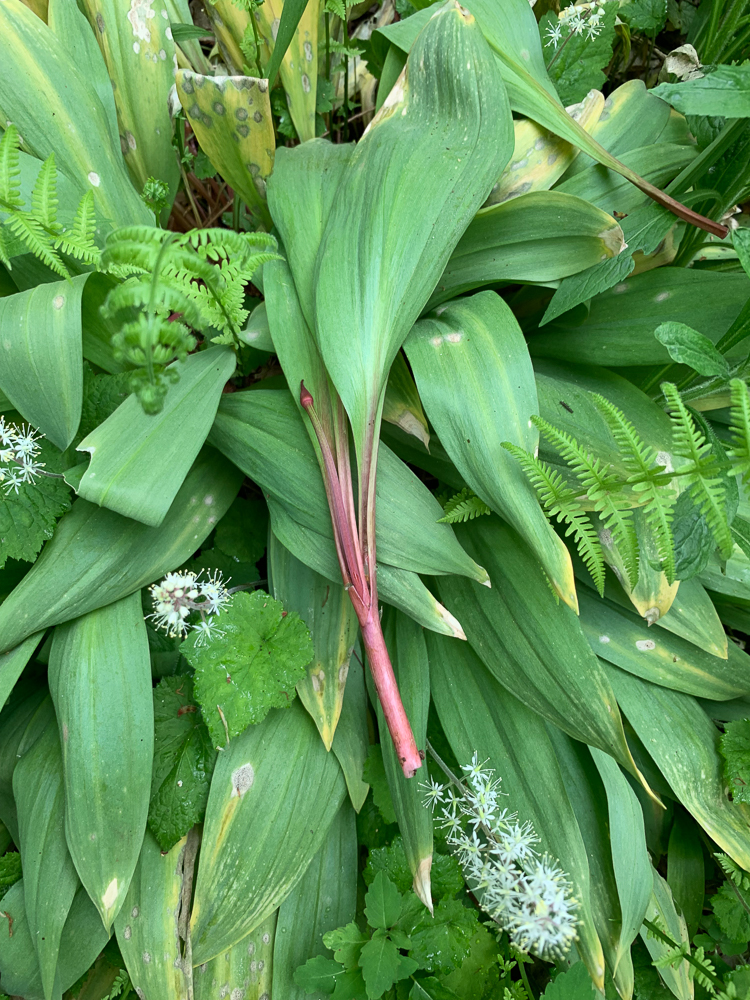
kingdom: Plantae
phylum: Tracheophyta
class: Liliopsida
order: Asparagales
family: Amaryllidaceae
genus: Allium
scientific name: Allium tricoccum
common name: Ramp
